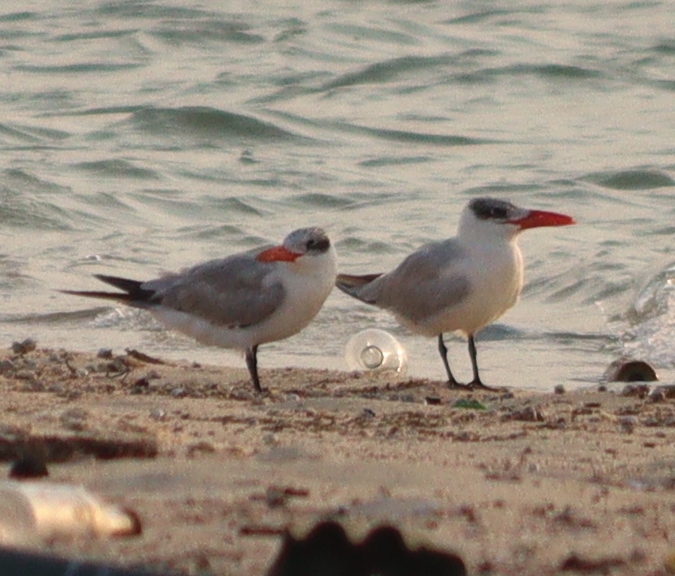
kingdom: Animalia
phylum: Chordata
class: Aves
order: Charadriiformes
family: Laridae
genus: Hydroprogne
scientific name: Hydroprogne caspia
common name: Caspian tern
